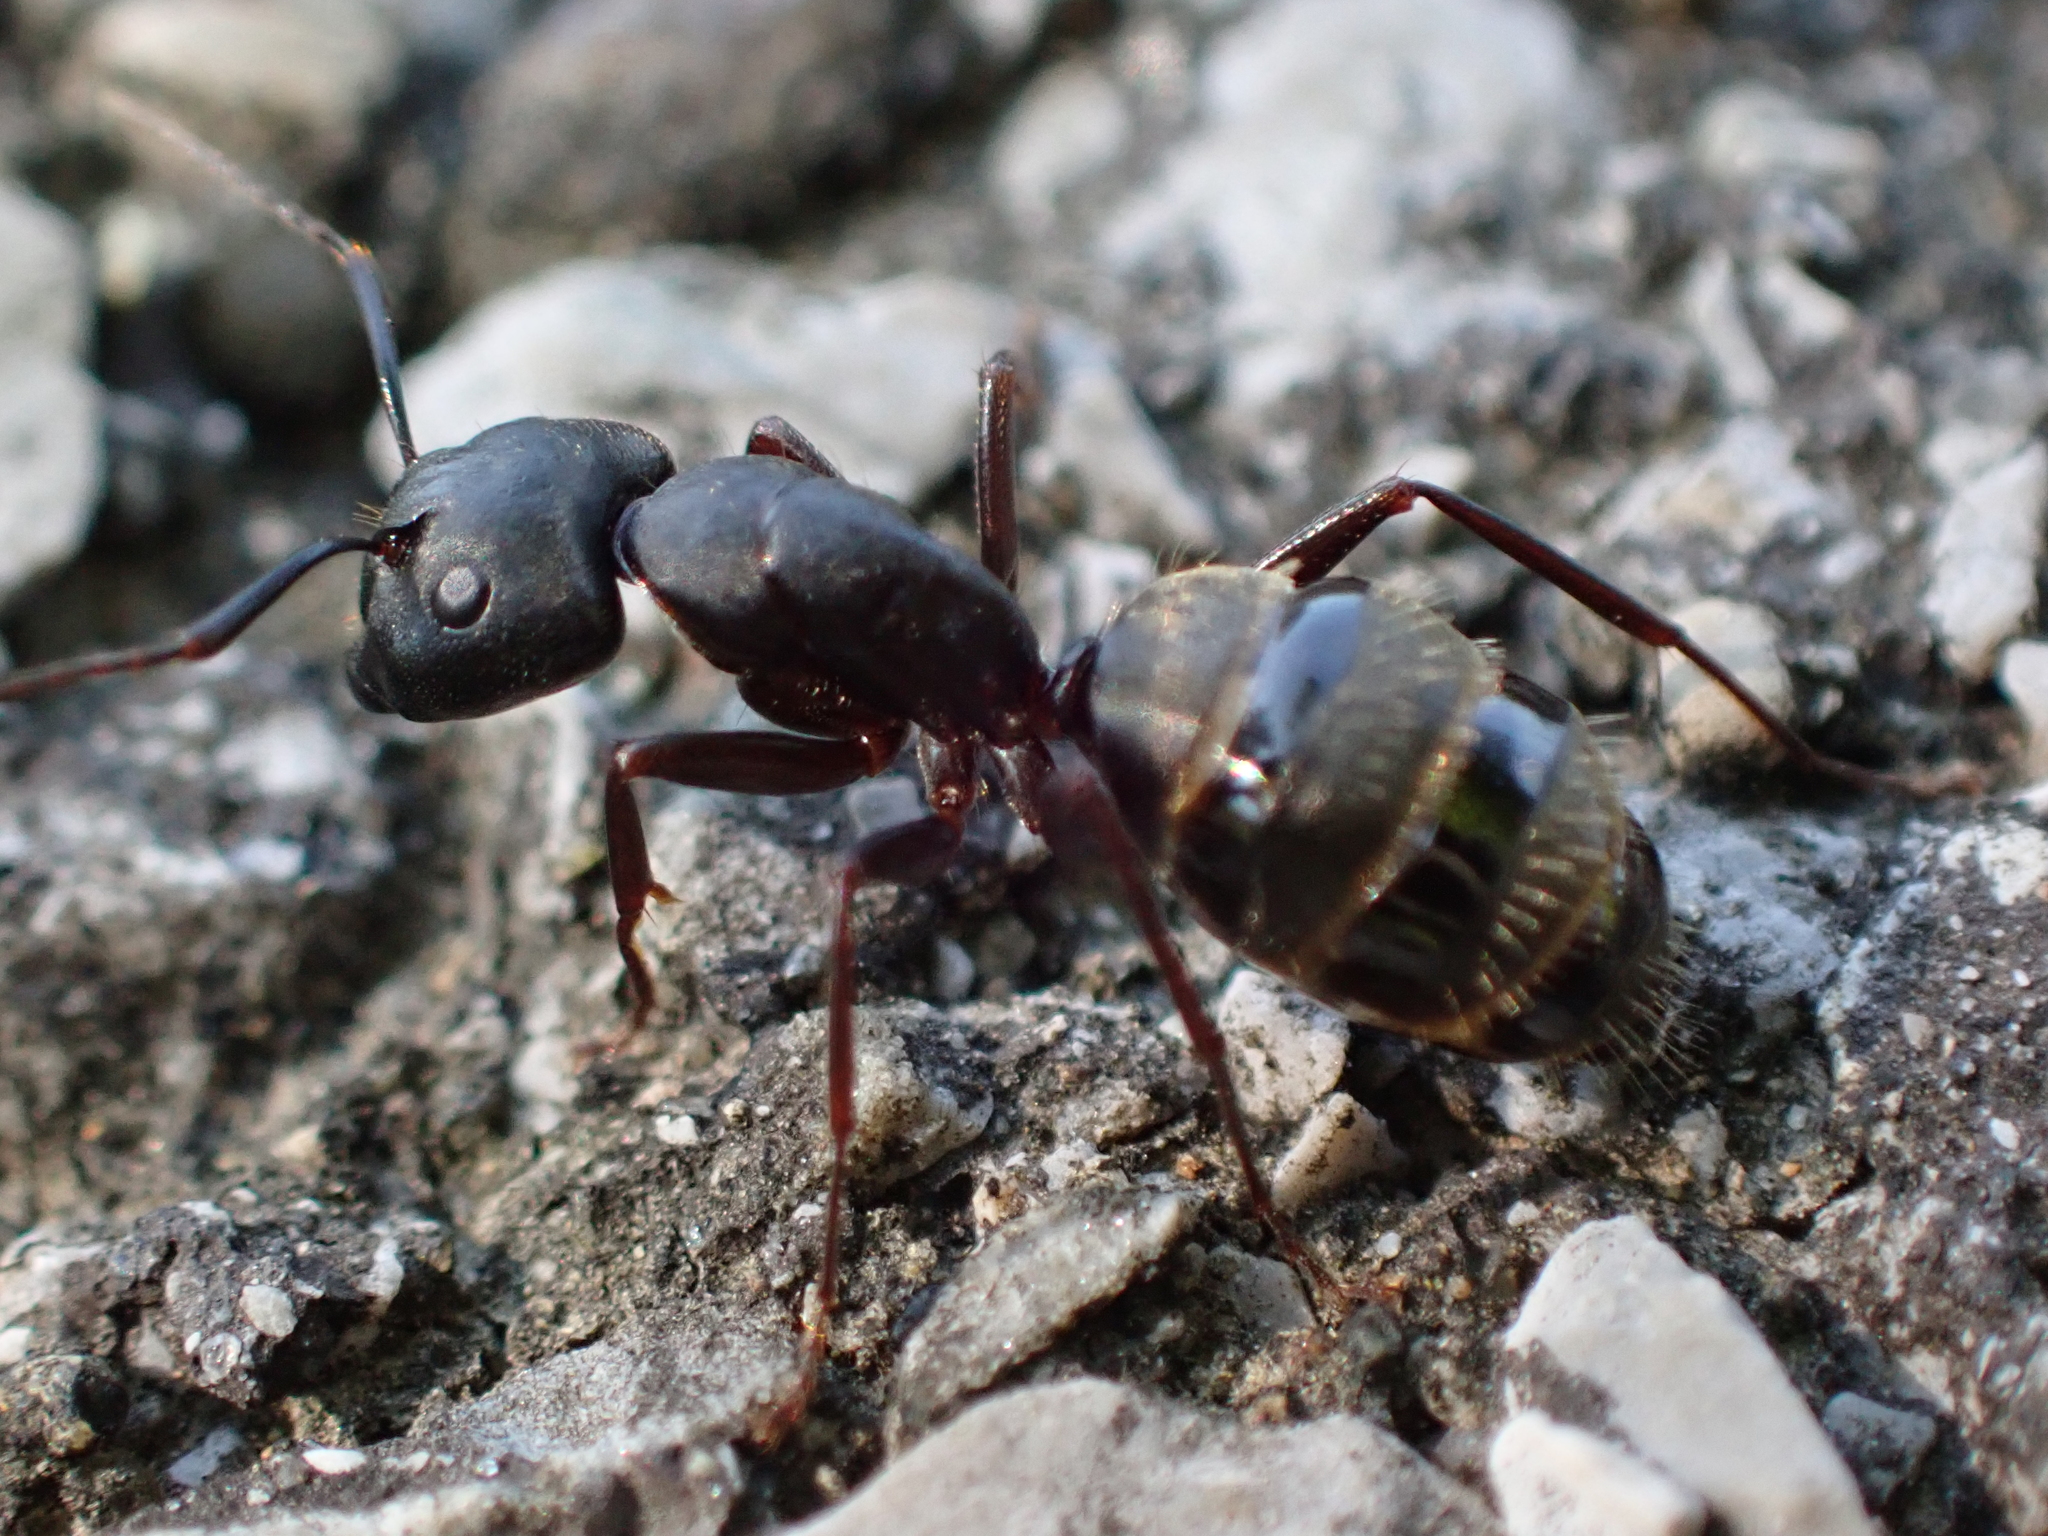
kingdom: Animalia
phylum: Arthropoda
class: Insecta
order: Hymenoptera
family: Formicidae
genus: Camponotus
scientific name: Camponotus pennsylvanicus
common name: Black carpenter ant
